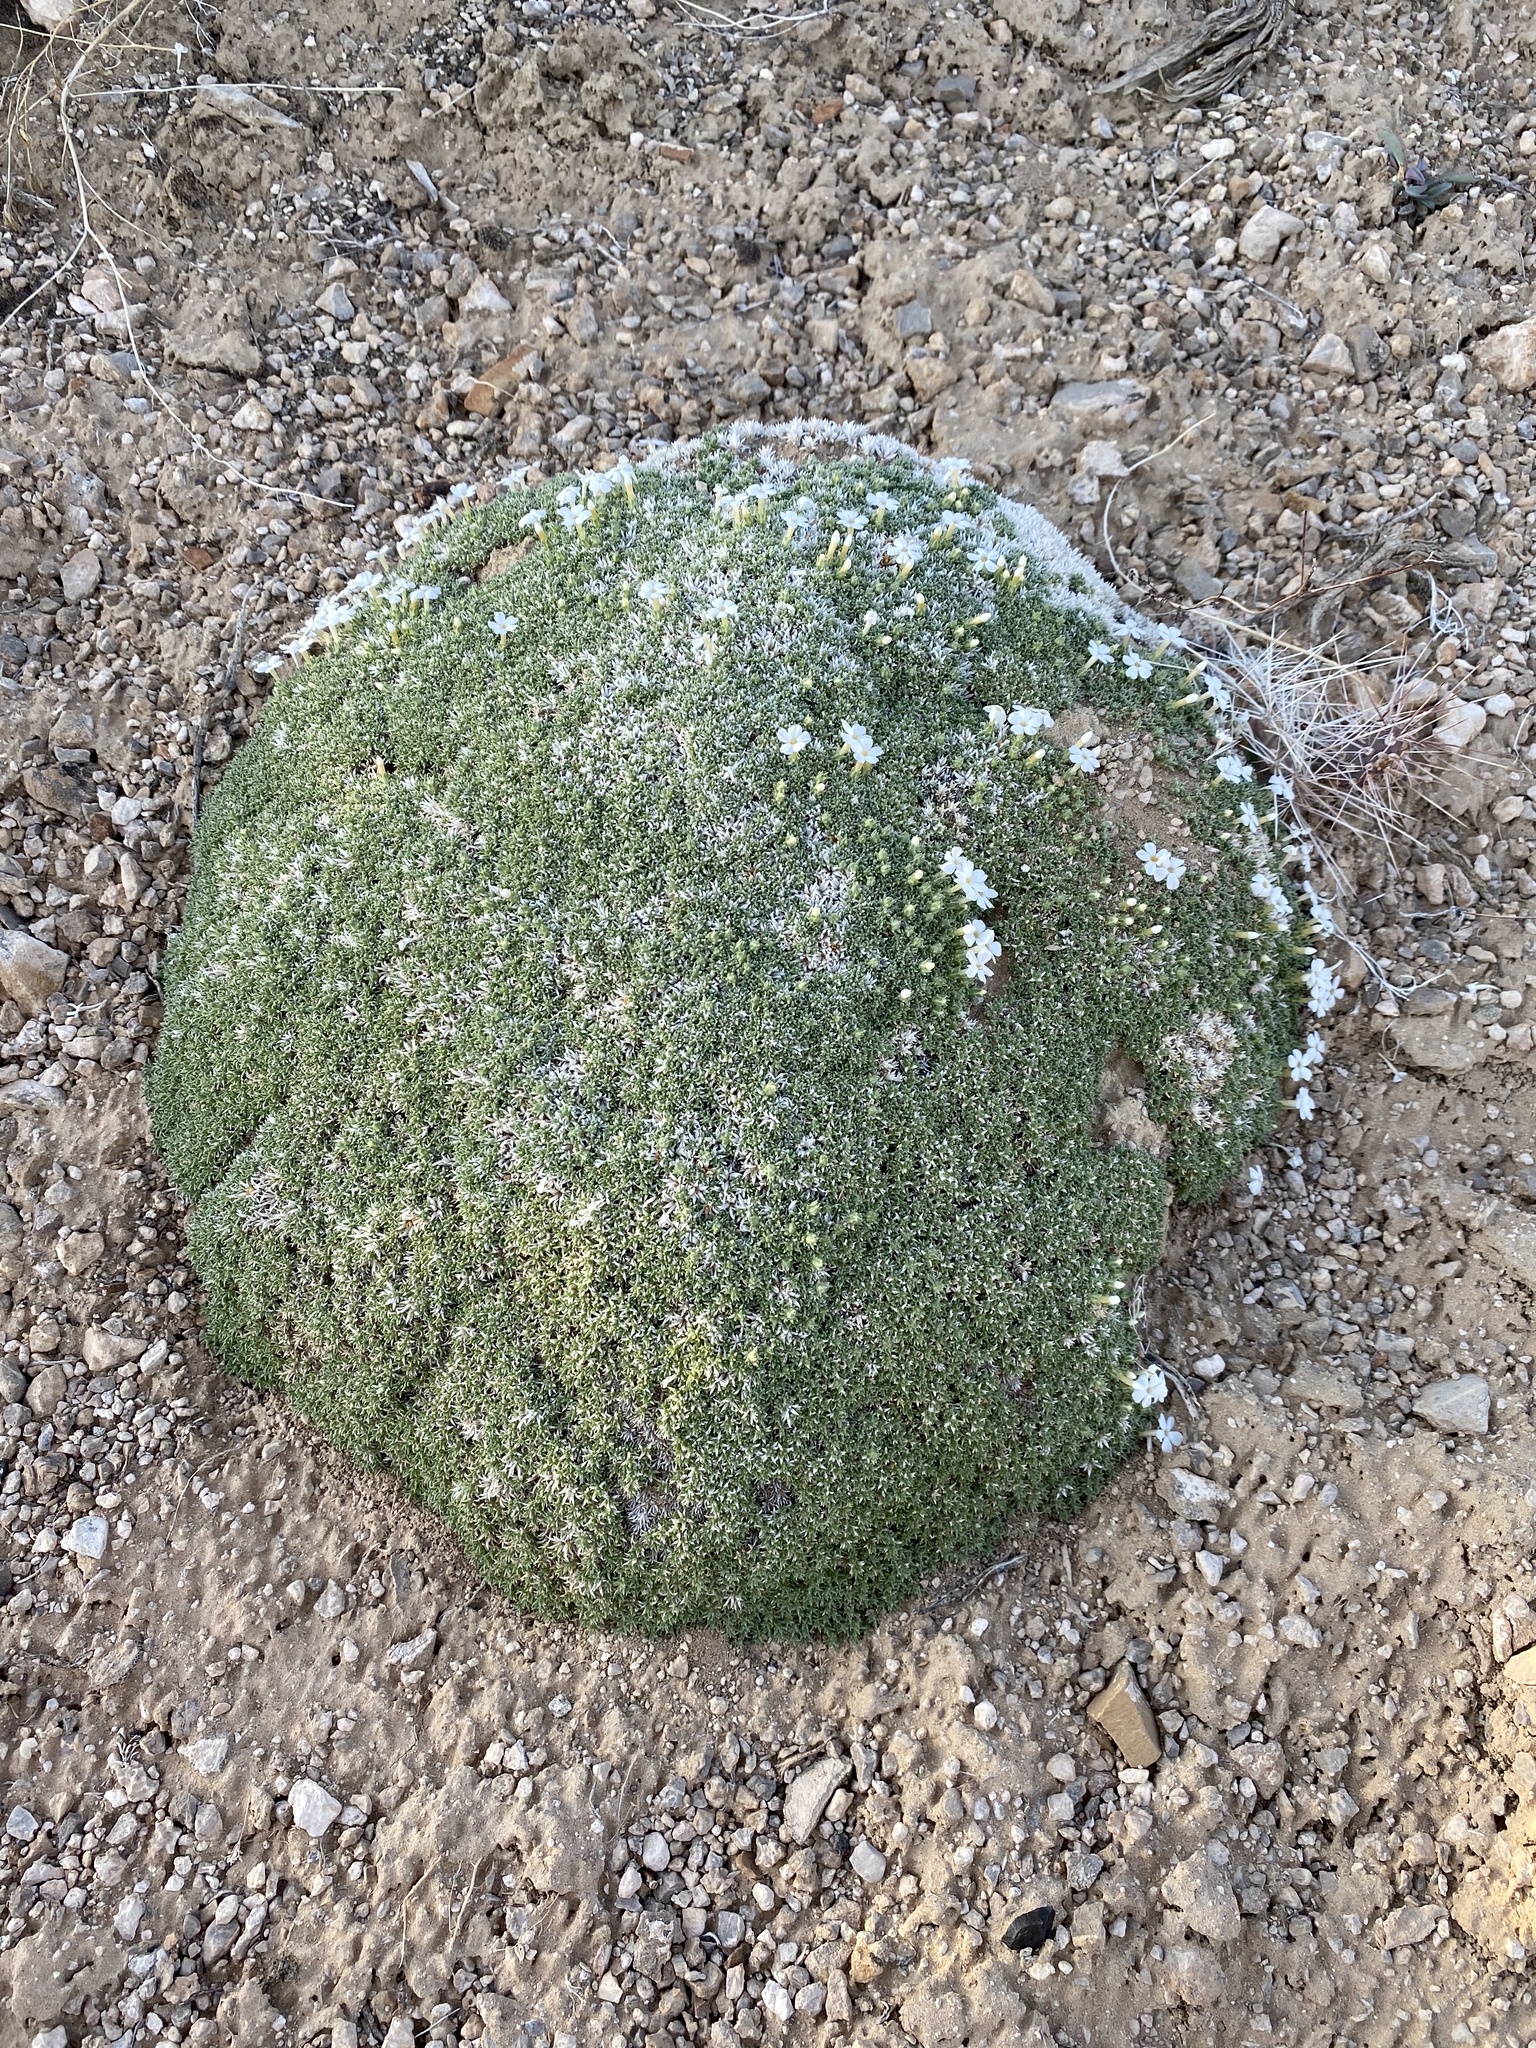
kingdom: Plantae
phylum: Tracheophyta
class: Magnoliopsida
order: Ericales
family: Polemoniaceae
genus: Phlox
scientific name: Phlox griseola
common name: Gray-leaf phlox
